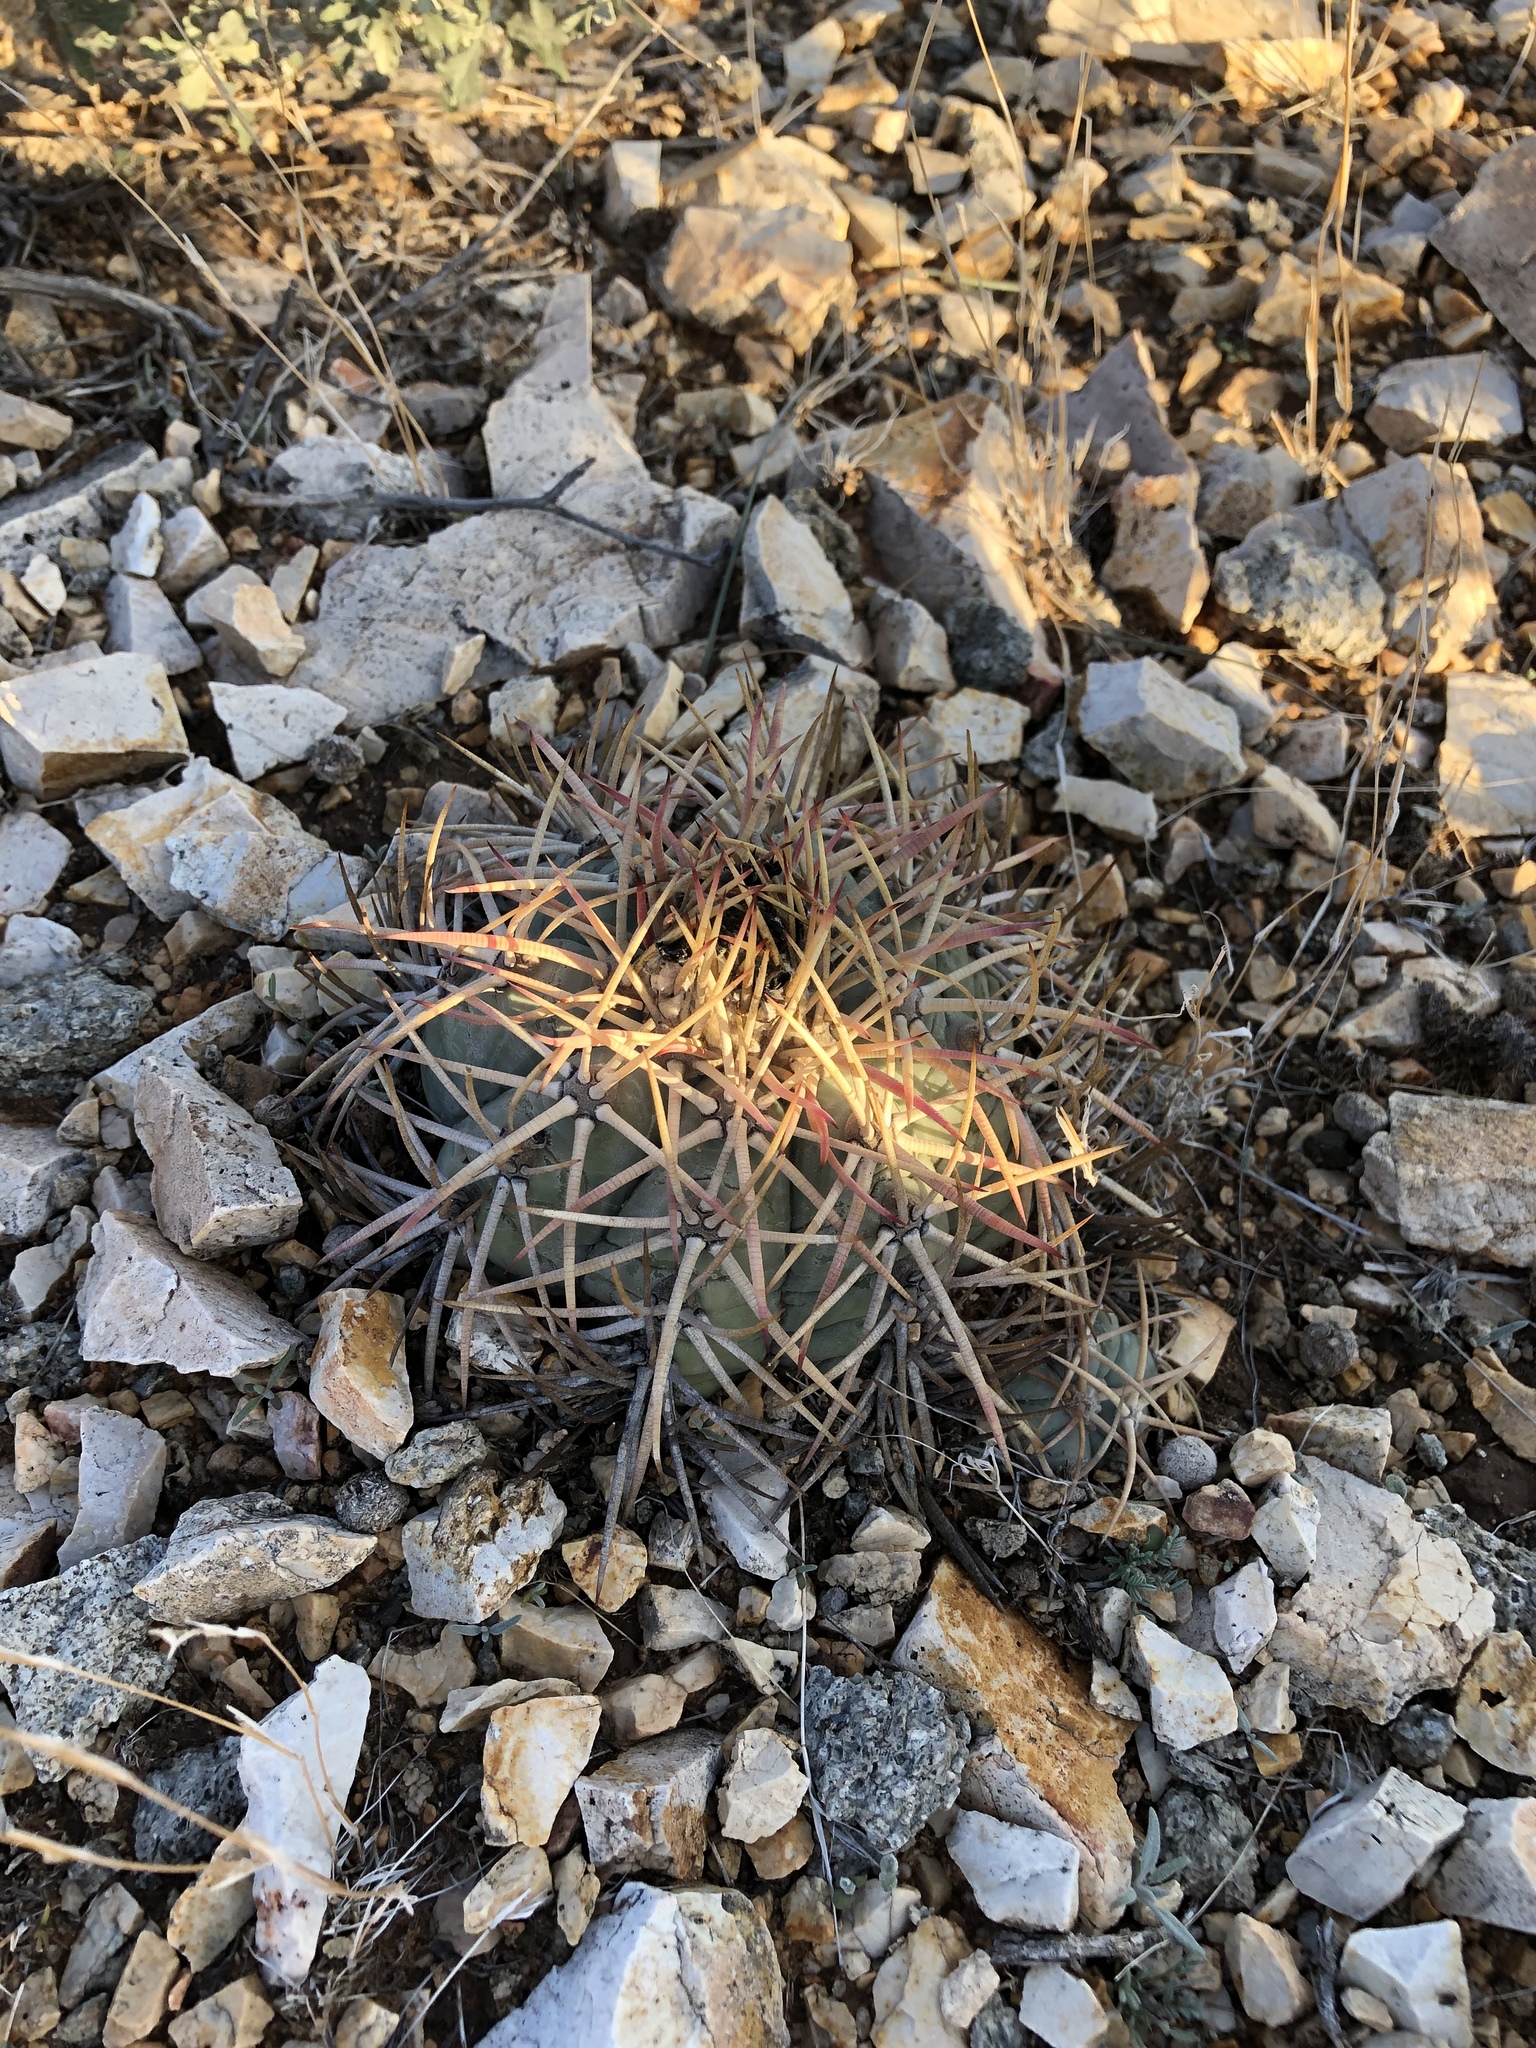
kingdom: Plantae
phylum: Tracheophyta
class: Magnoliopsida
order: Caryophyllales
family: Cactaceae
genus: Echinocactus
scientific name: Echinocactus horizonthalonius
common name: Devilshead
